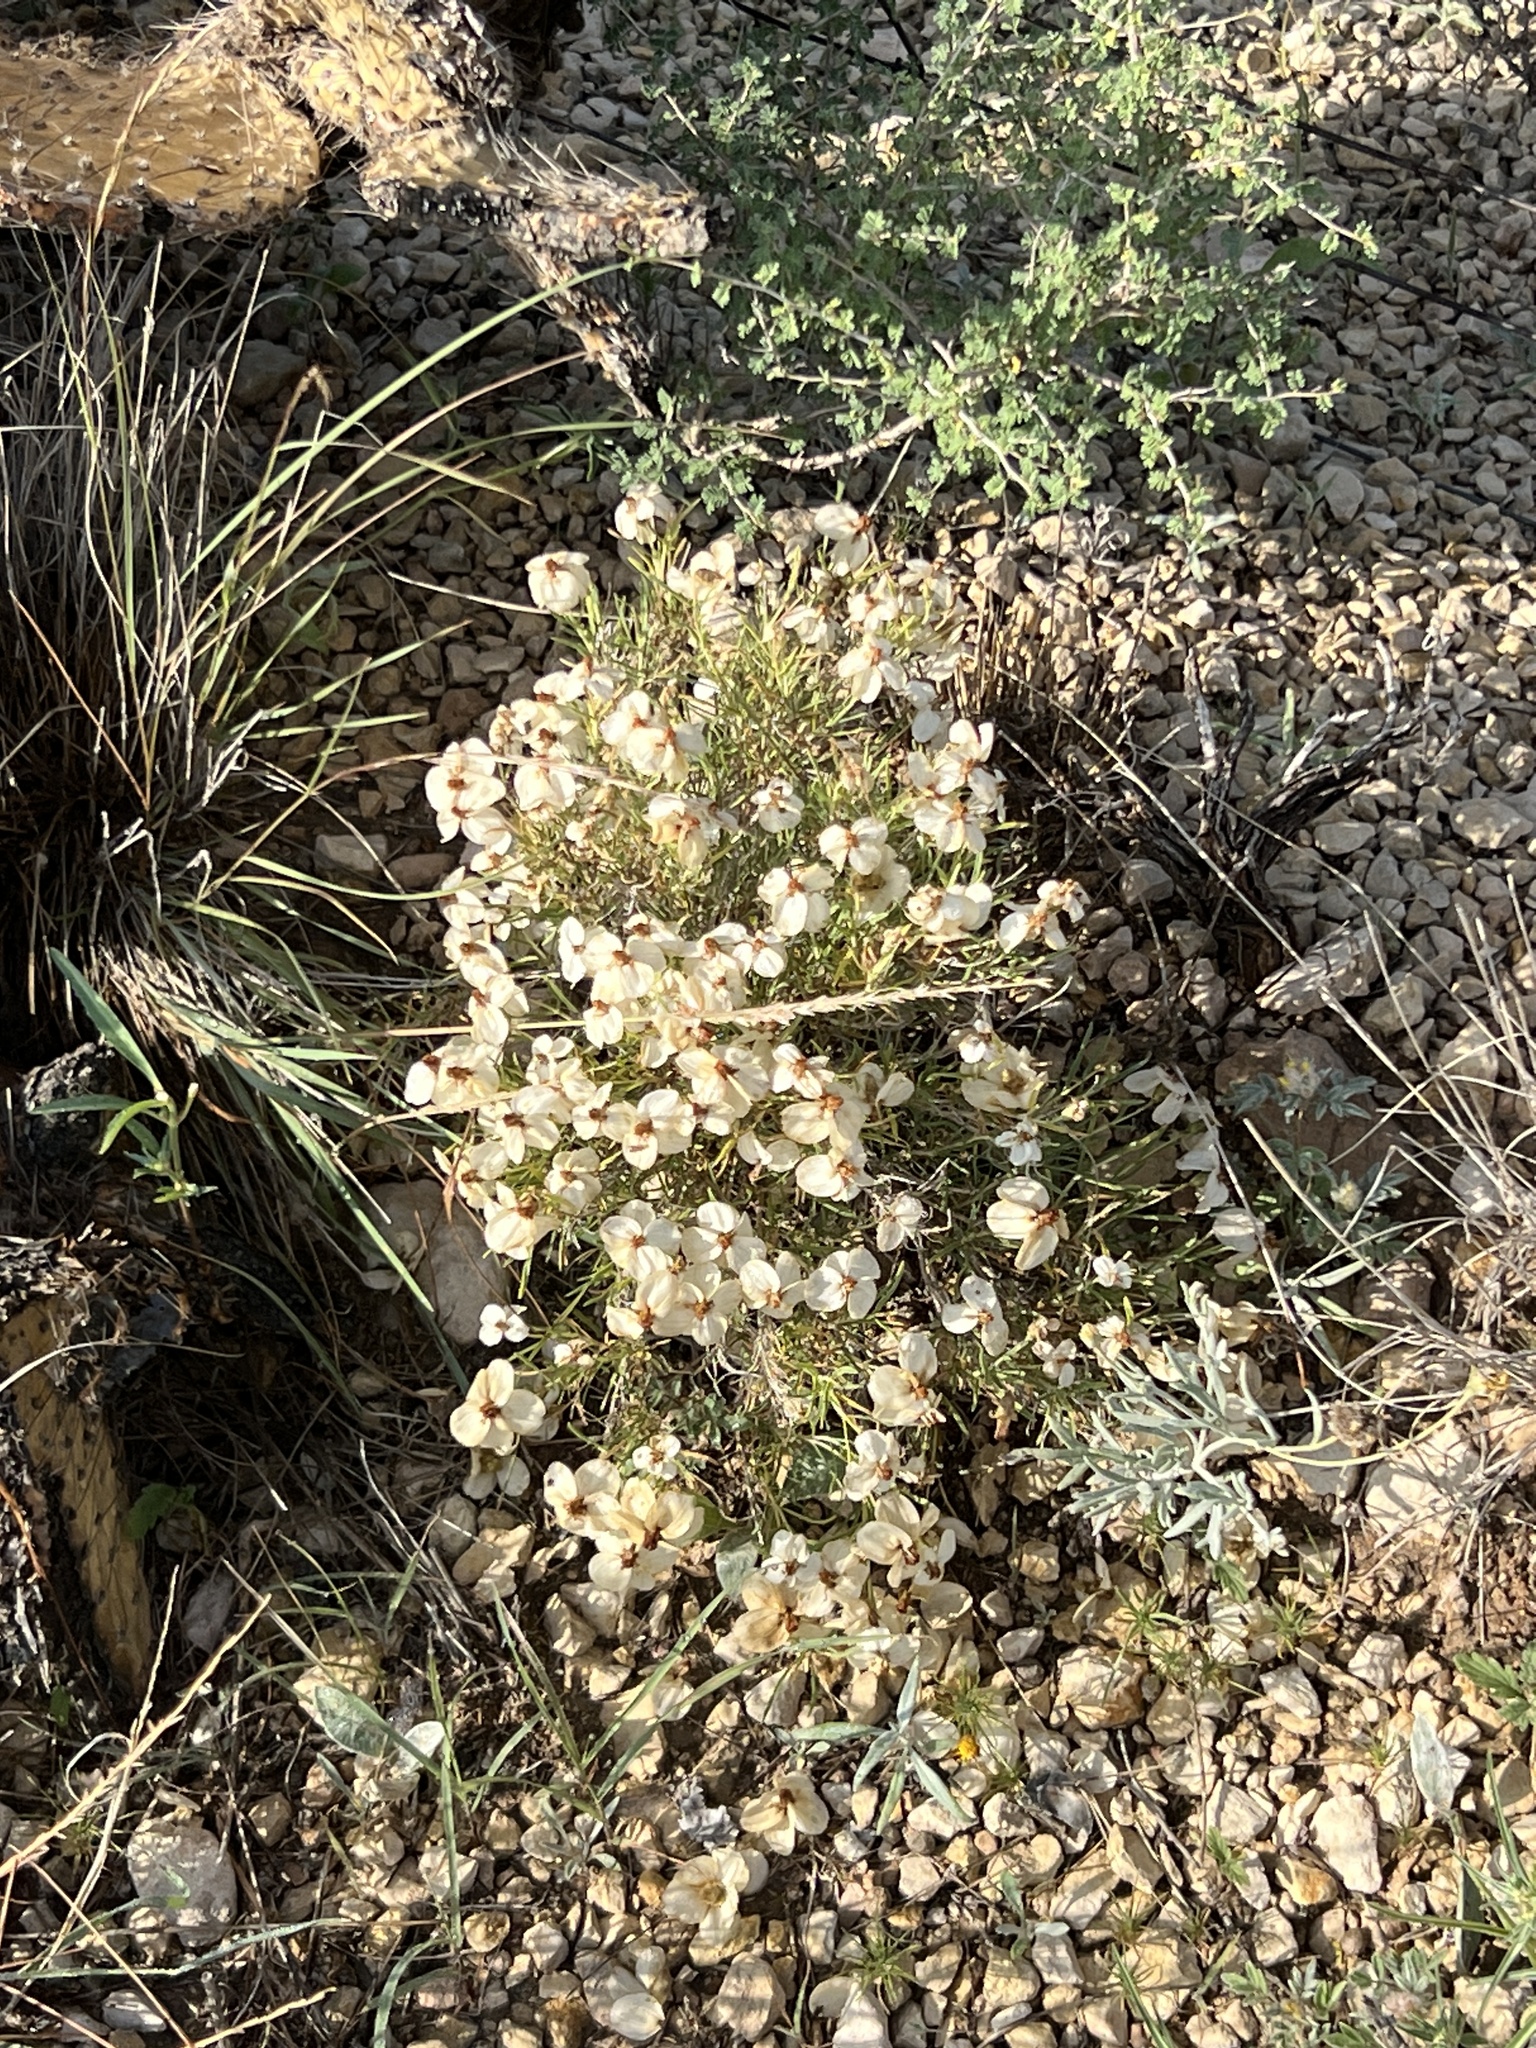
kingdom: Plantae
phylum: Tracheophyta
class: Magnoliopsida
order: Asterales
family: Asteraceae
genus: Zinnia
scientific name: Zinnia acerosa
